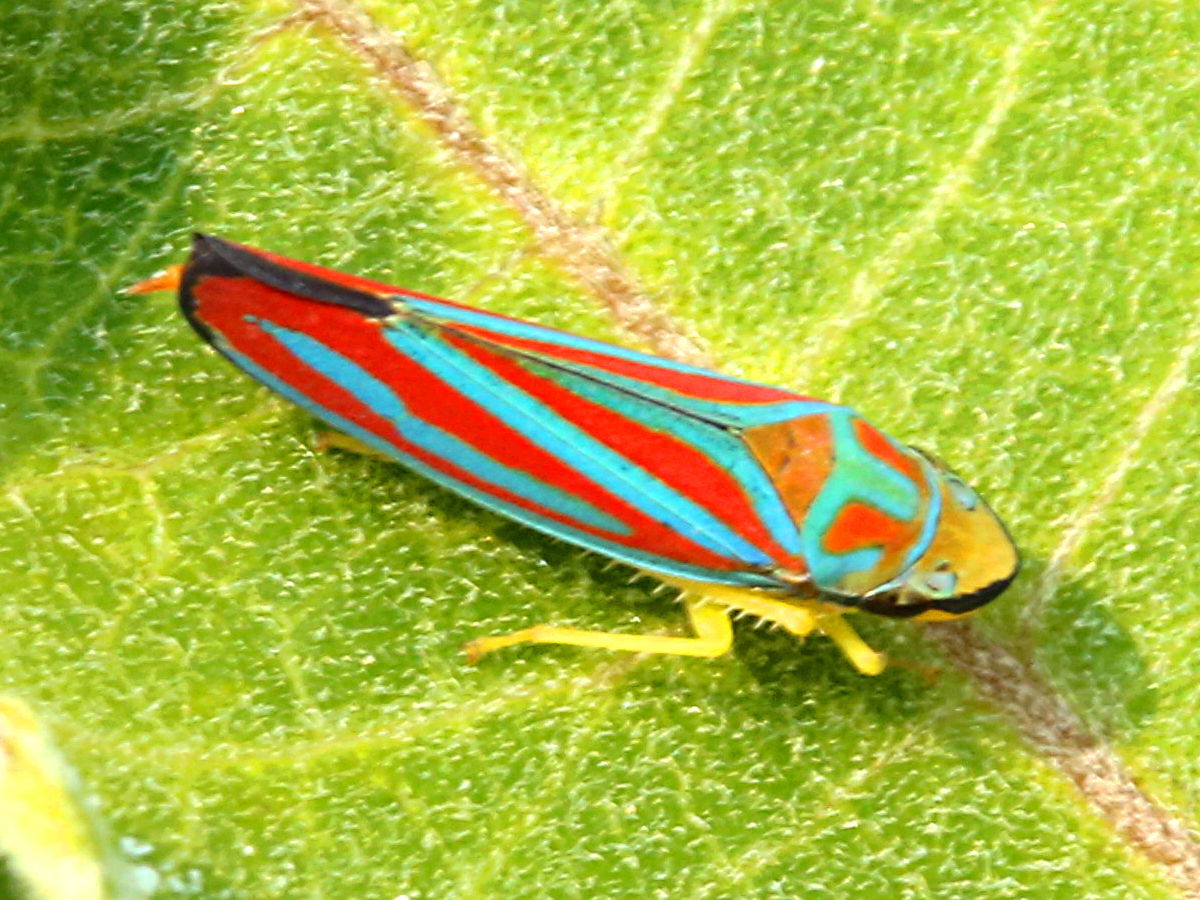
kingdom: Animalia
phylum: Arthropoda
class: Insecta
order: Hemiptera
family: Cicadellidae
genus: Graphocephala
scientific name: Graphocephala coccinea
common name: Candy-striped leafhopper
